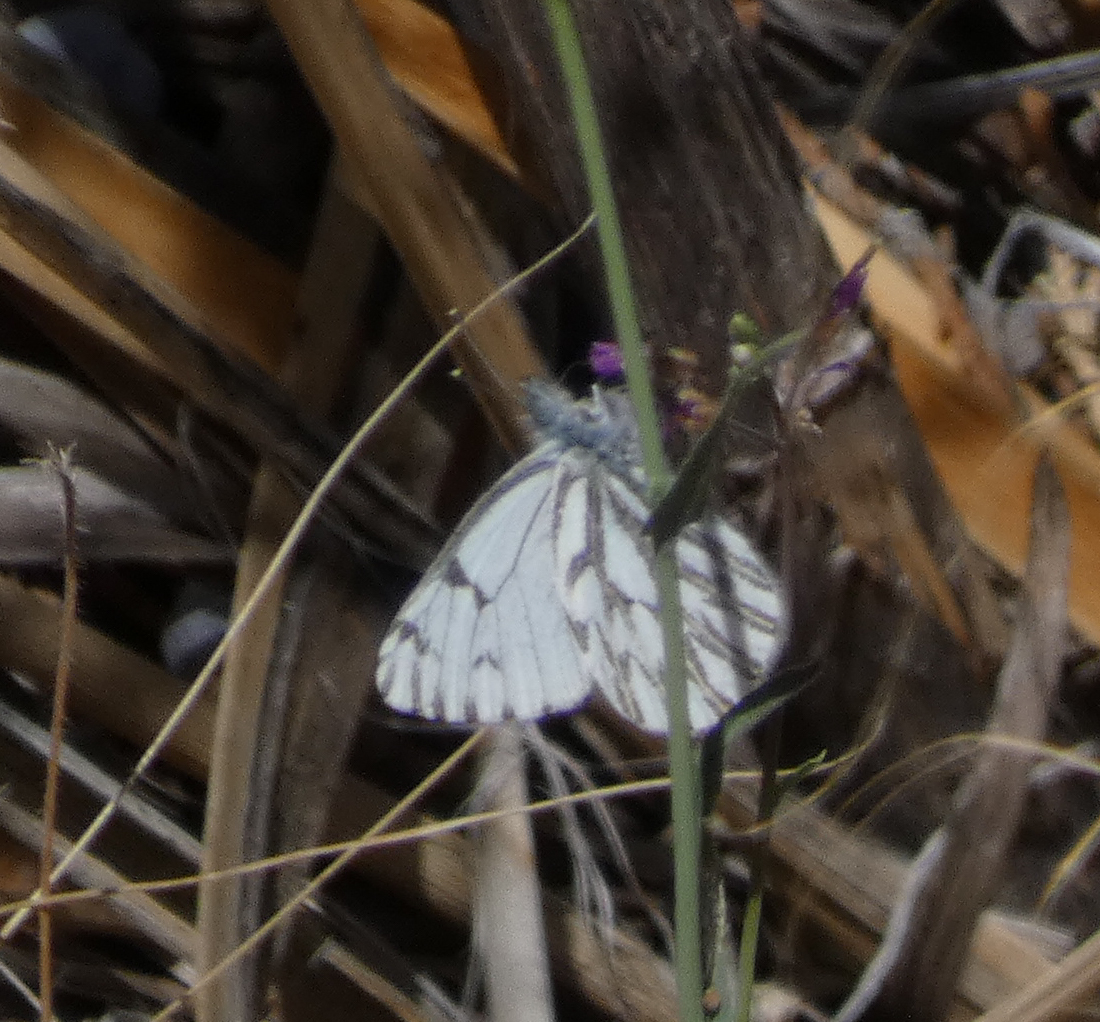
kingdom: Animalia
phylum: Arthropoda
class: Insecta
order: Lepidoptera
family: Pieridae
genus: Pontia
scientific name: Pontia sisymbrii
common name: California white
